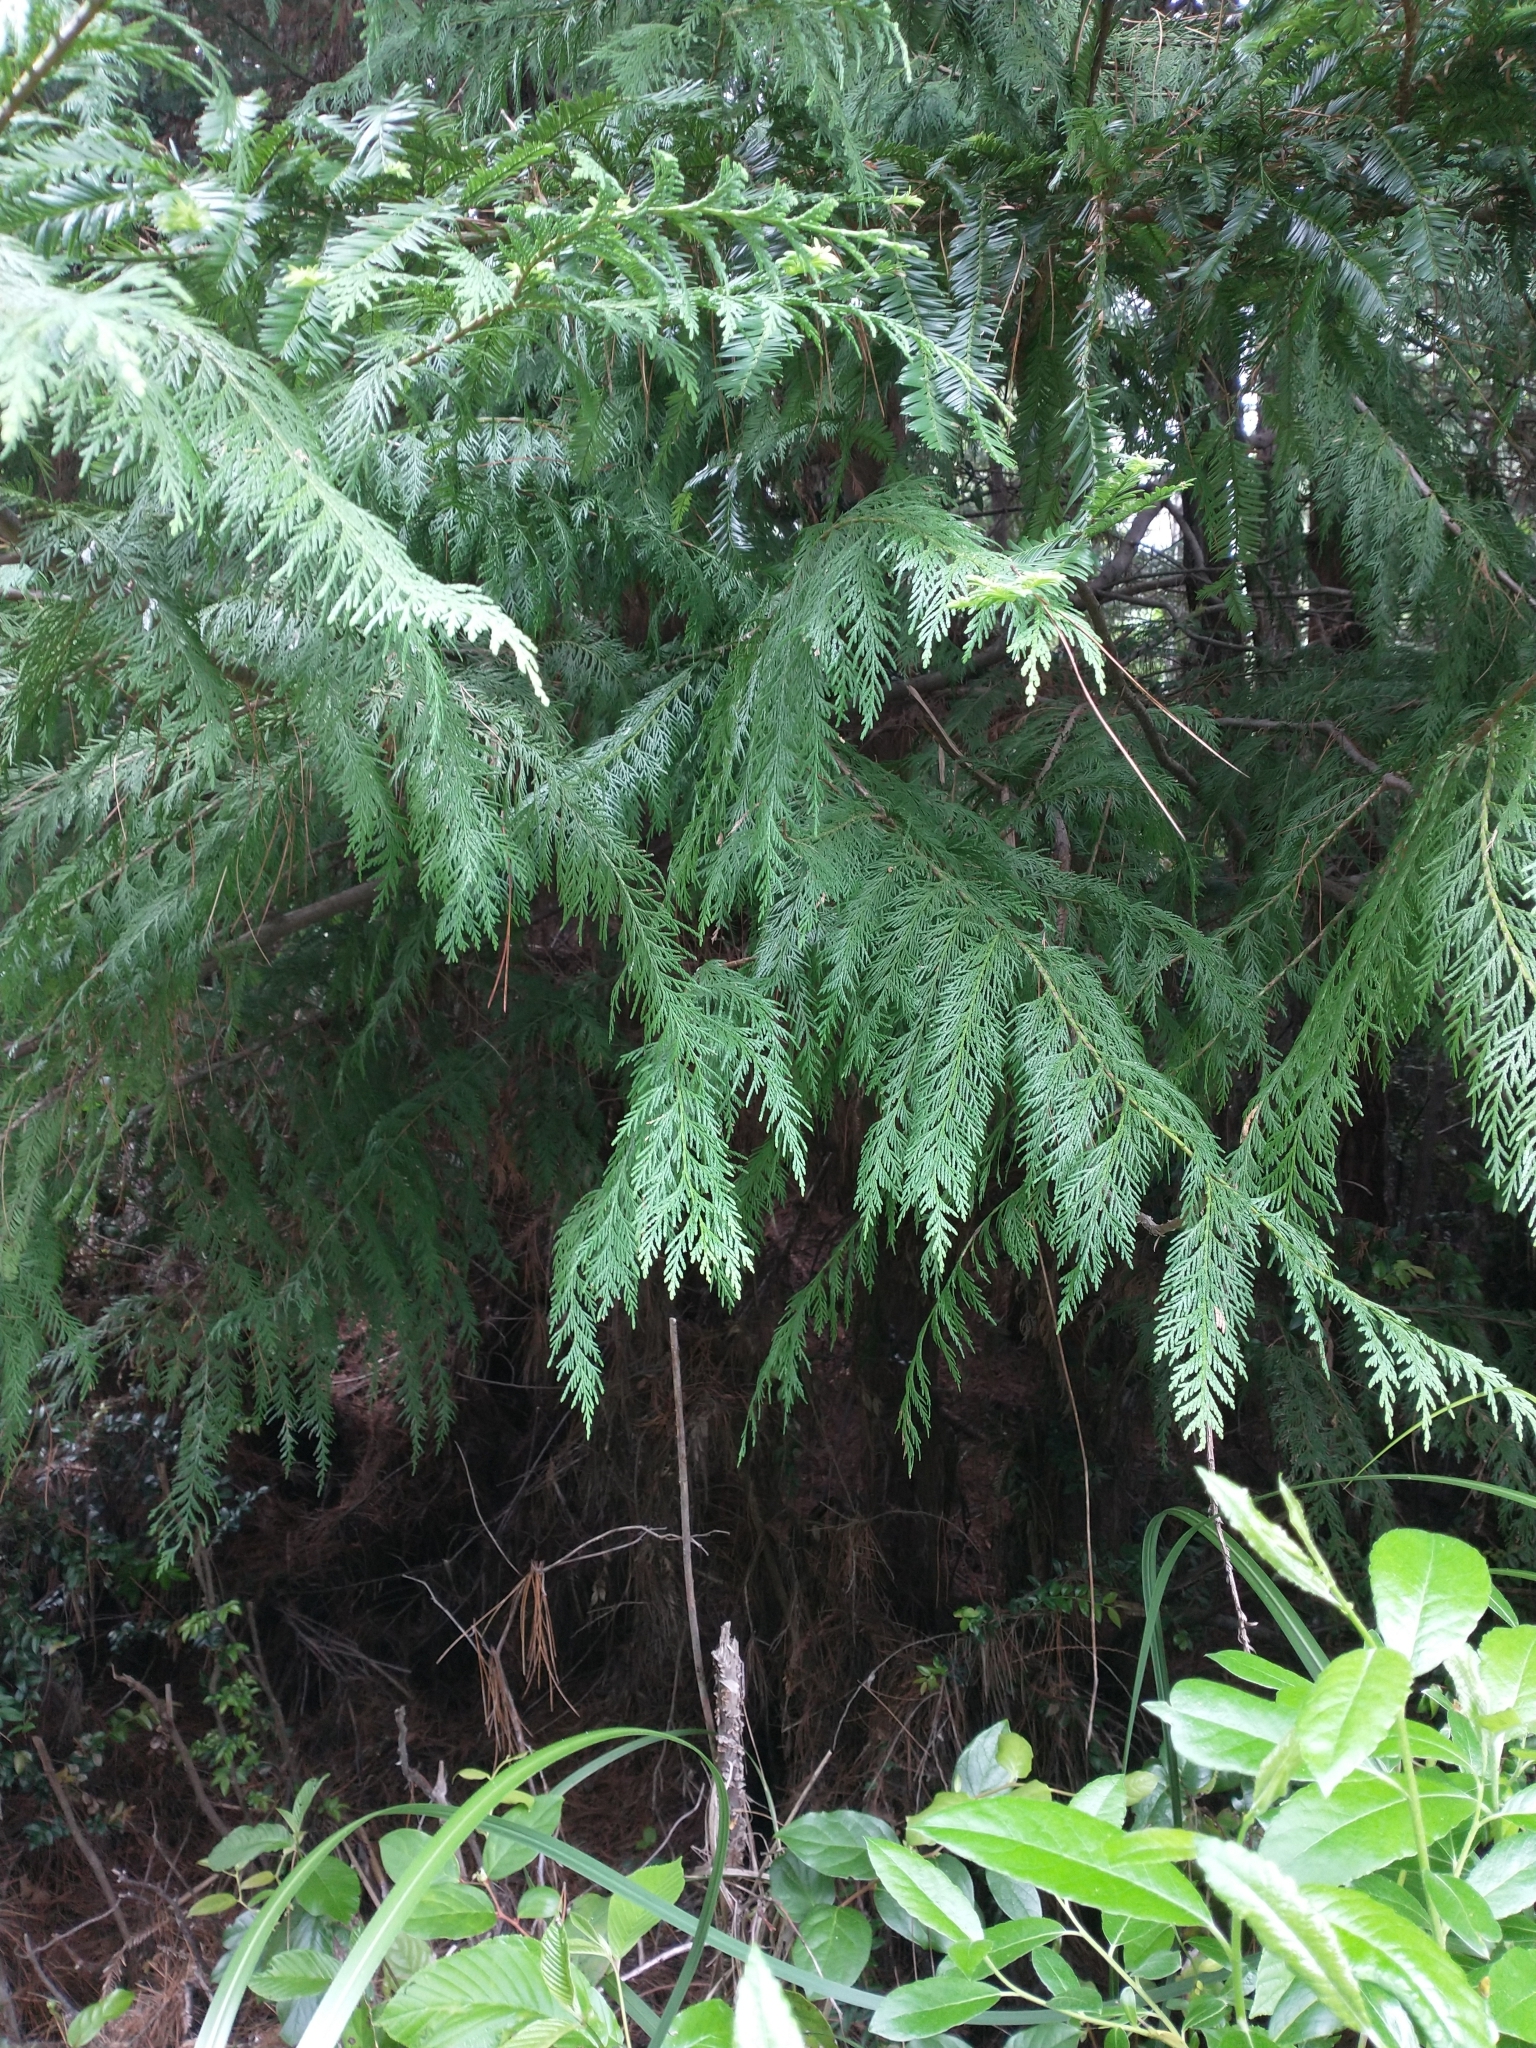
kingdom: Plantae
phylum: Tracheophyta
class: Pinopsida
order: Pinales
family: Cupressaceae
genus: Chamaecyparis
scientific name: Chamaecyparis lawsoniana
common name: Lawson's cypress
